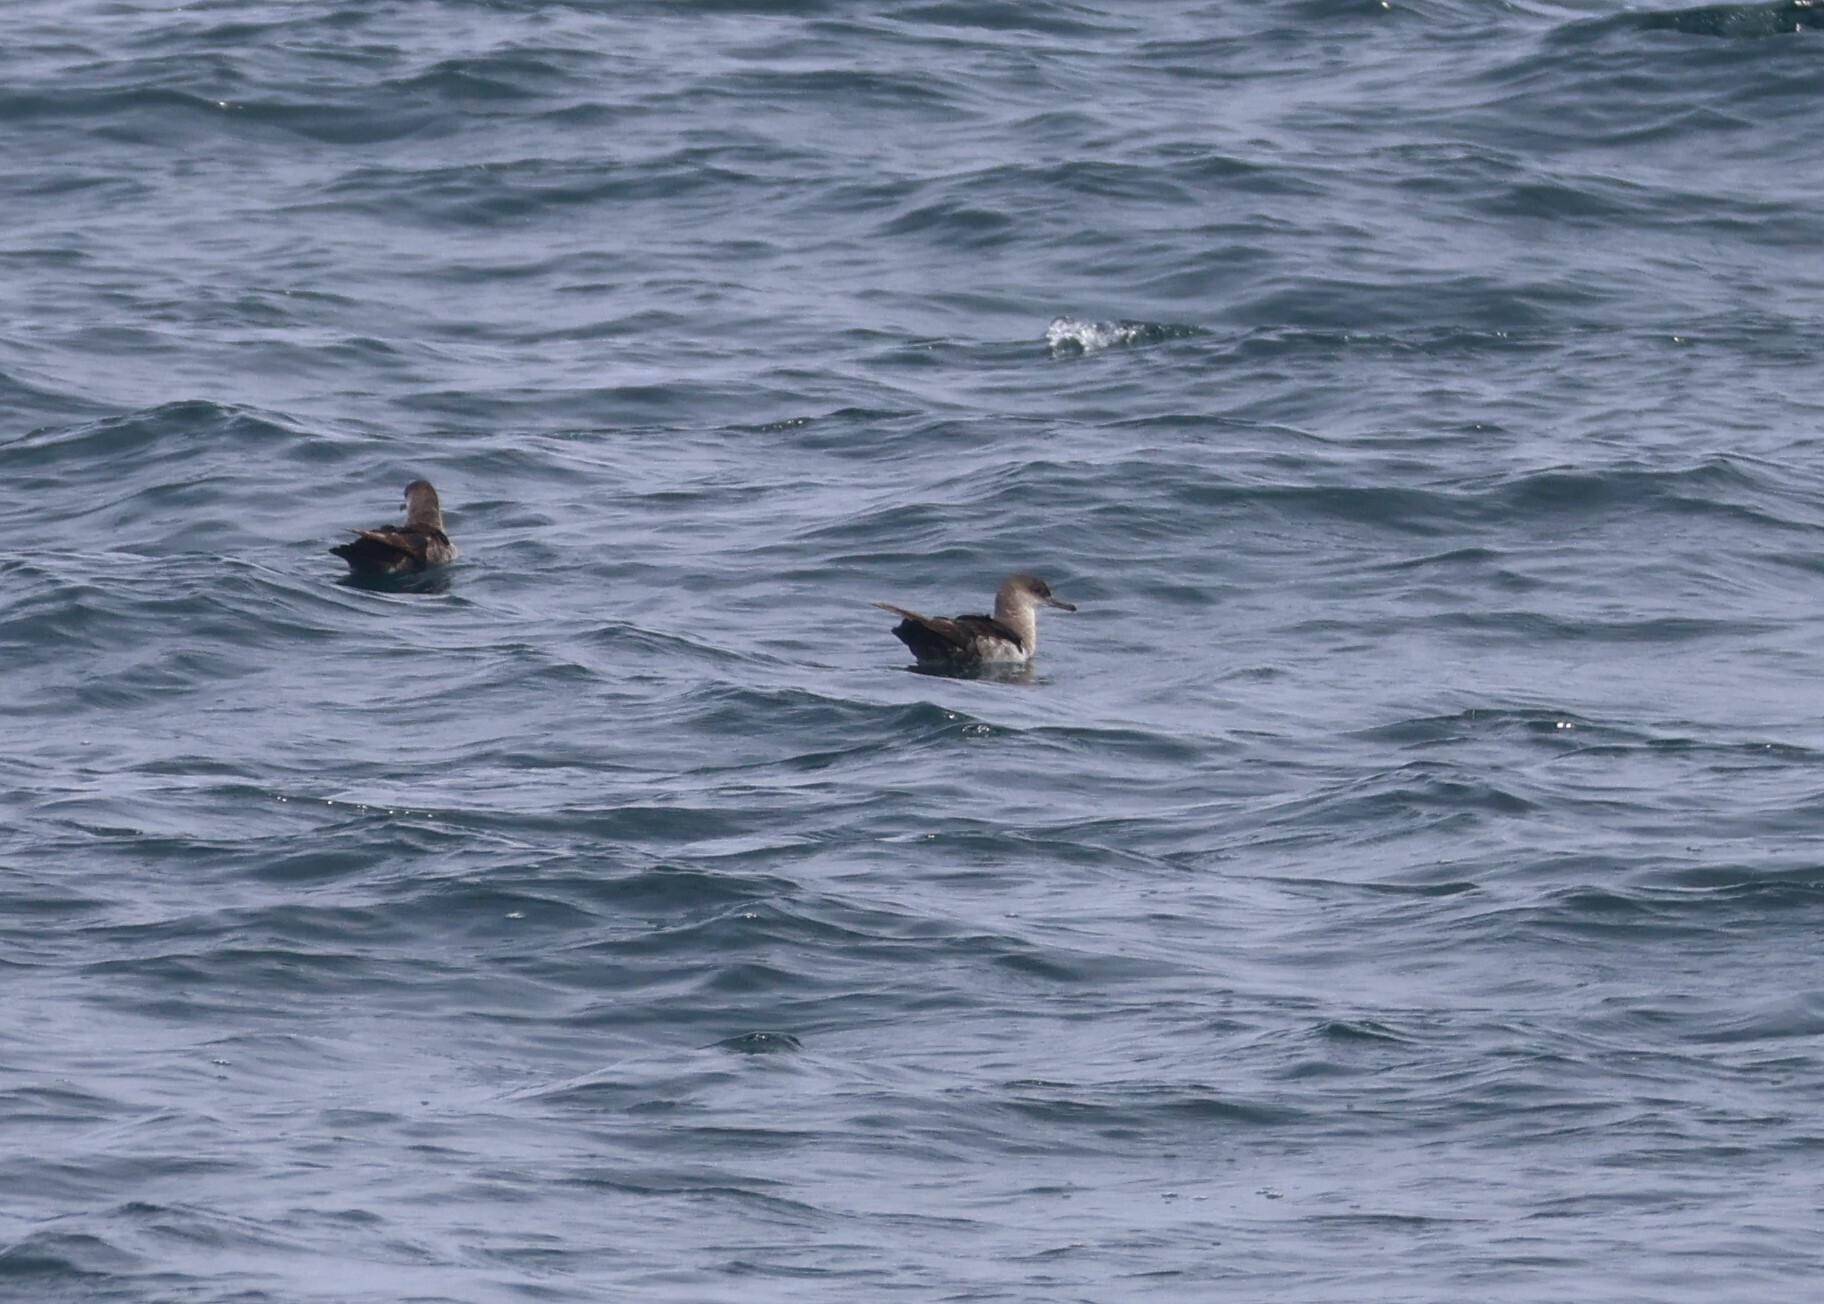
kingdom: Animalia
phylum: Chordata
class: Aves
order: Procellariiformes
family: Procellariidae
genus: Puffinus
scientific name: Puffinus opisthomelas
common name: Black-vented shearwater
